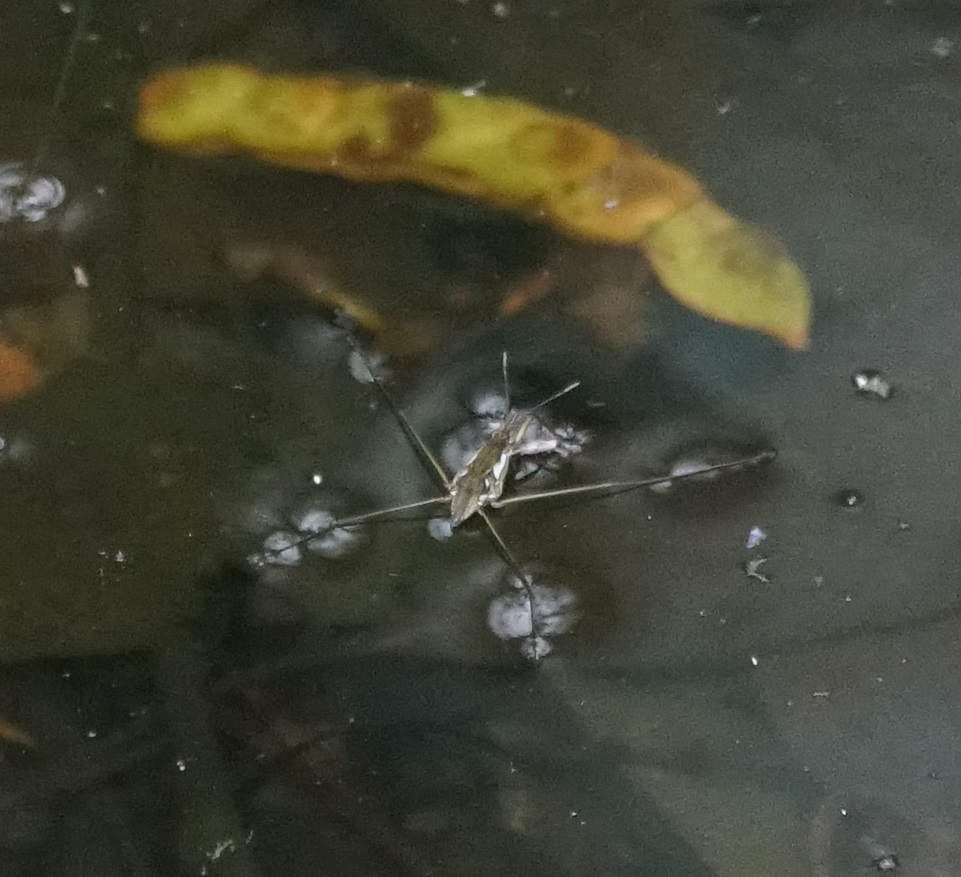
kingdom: Animalia
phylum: Arthropoda
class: Insecta
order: Hemiptera
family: Gerridae
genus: Tenagogerris
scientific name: Tenagogerris euphrosyne
